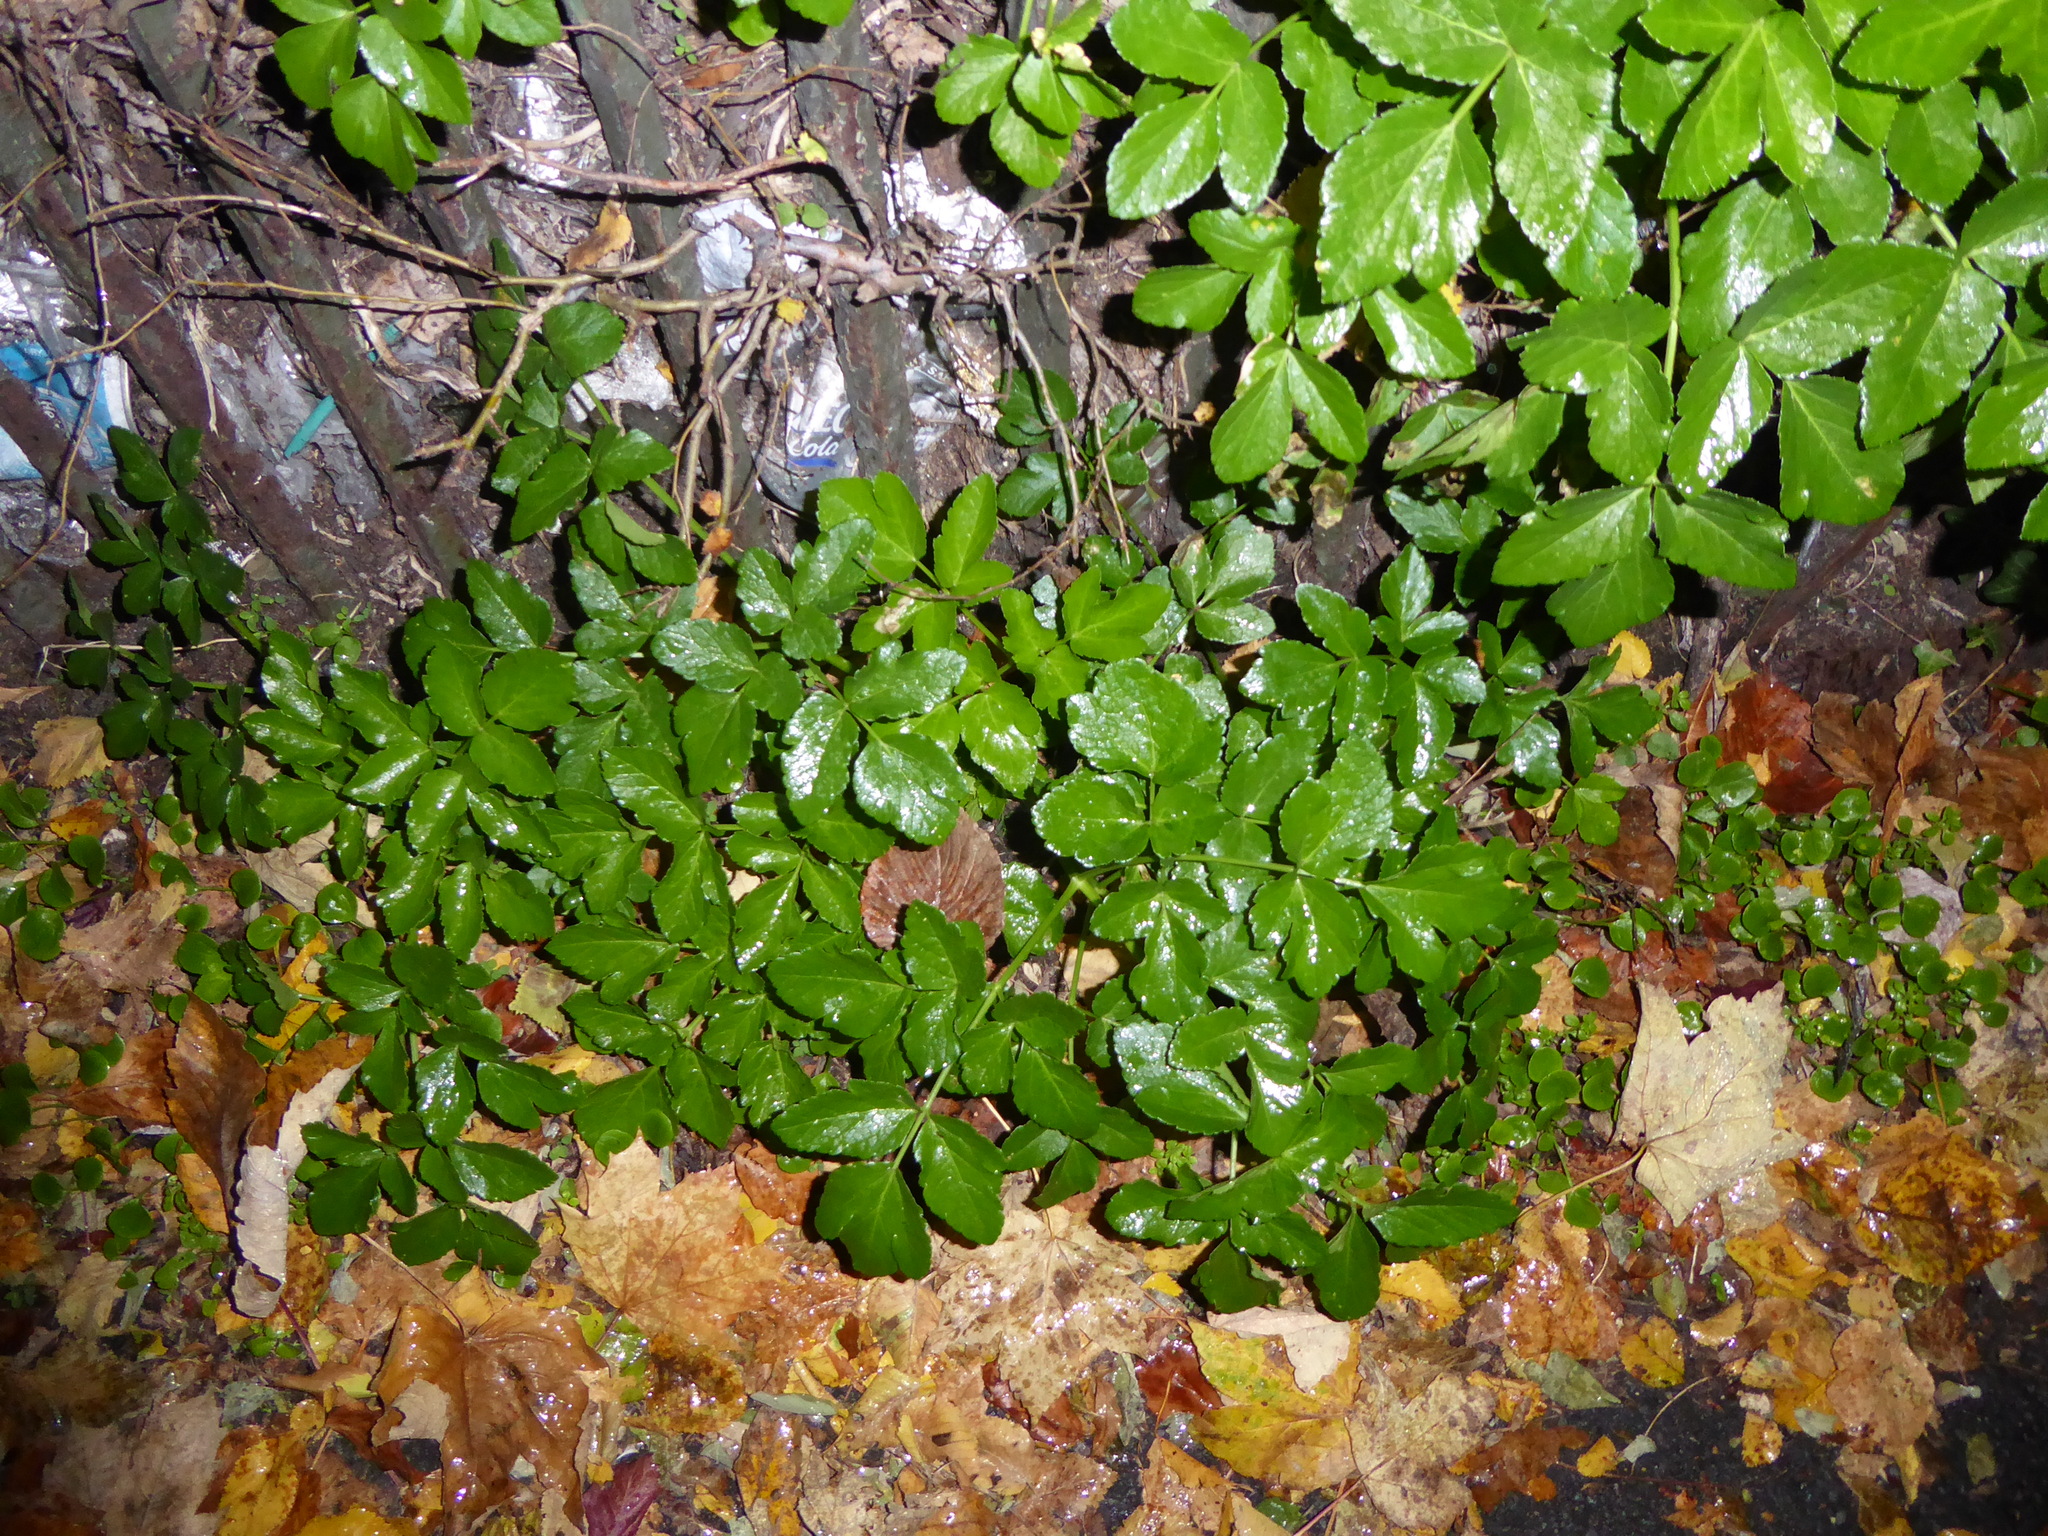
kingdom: Plantae
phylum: Tracheophyta
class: Magnoliopsida
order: Apiales
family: Apiaceae
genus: Smyrnium
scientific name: Smyrnium olusatrum
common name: Alexanders
